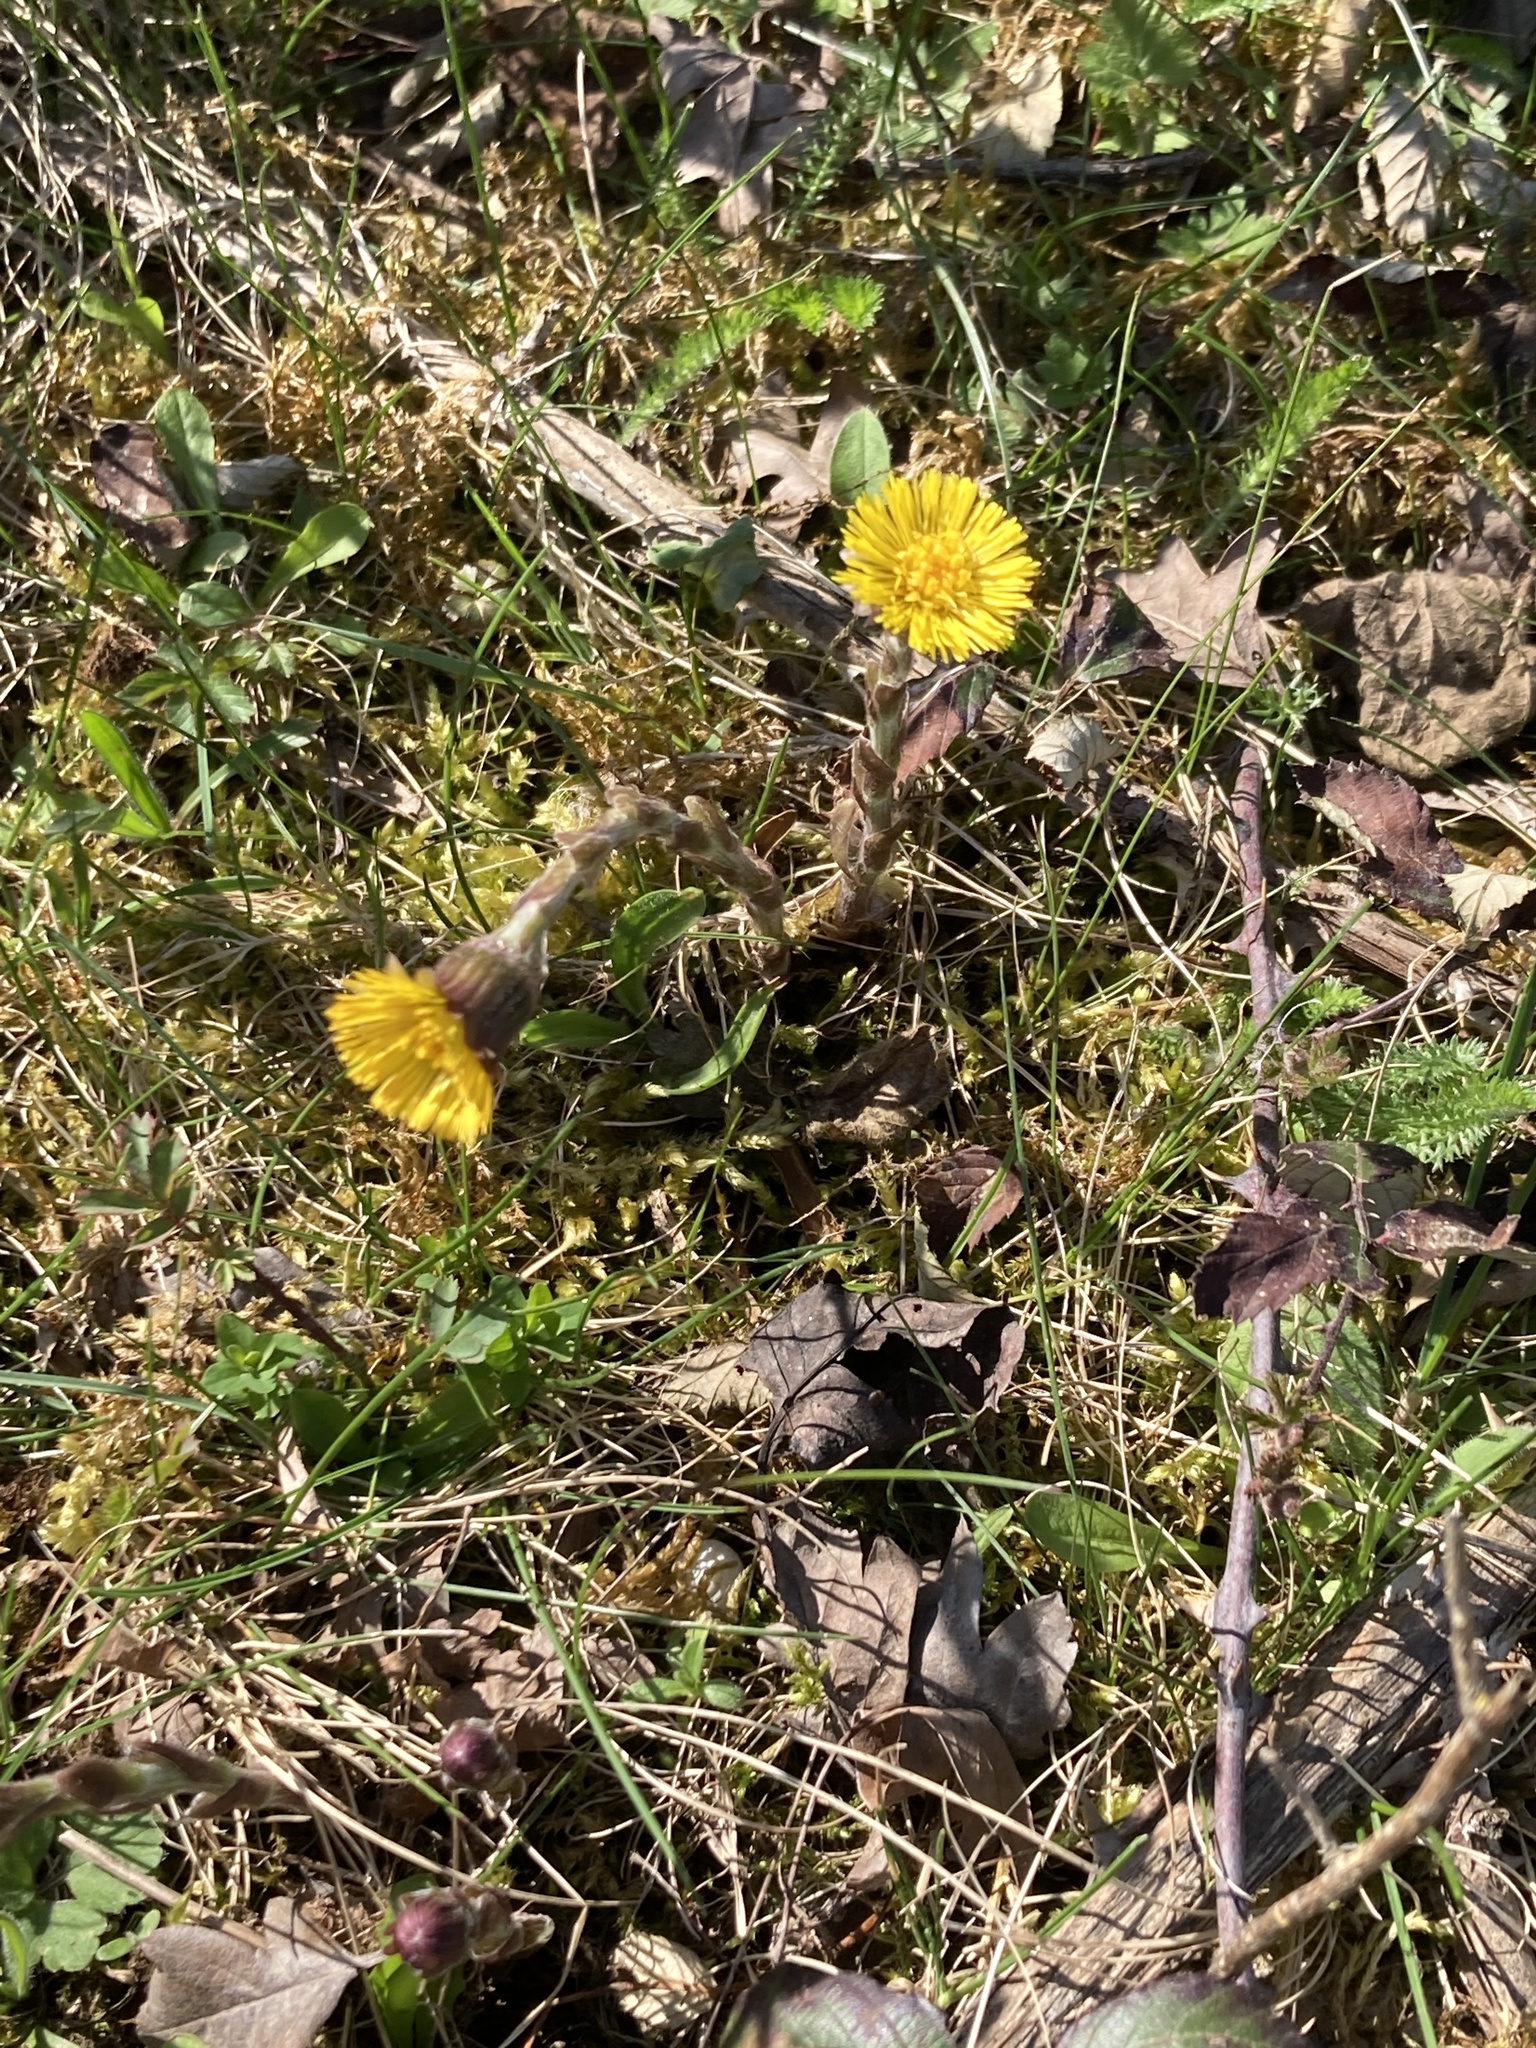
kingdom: Plantae
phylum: Tracheophyta
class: Magnoliopsida
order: Asterales
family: Asteraceae
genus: Tussilago
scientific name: Tussilago farfara
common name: Coltsfoot
